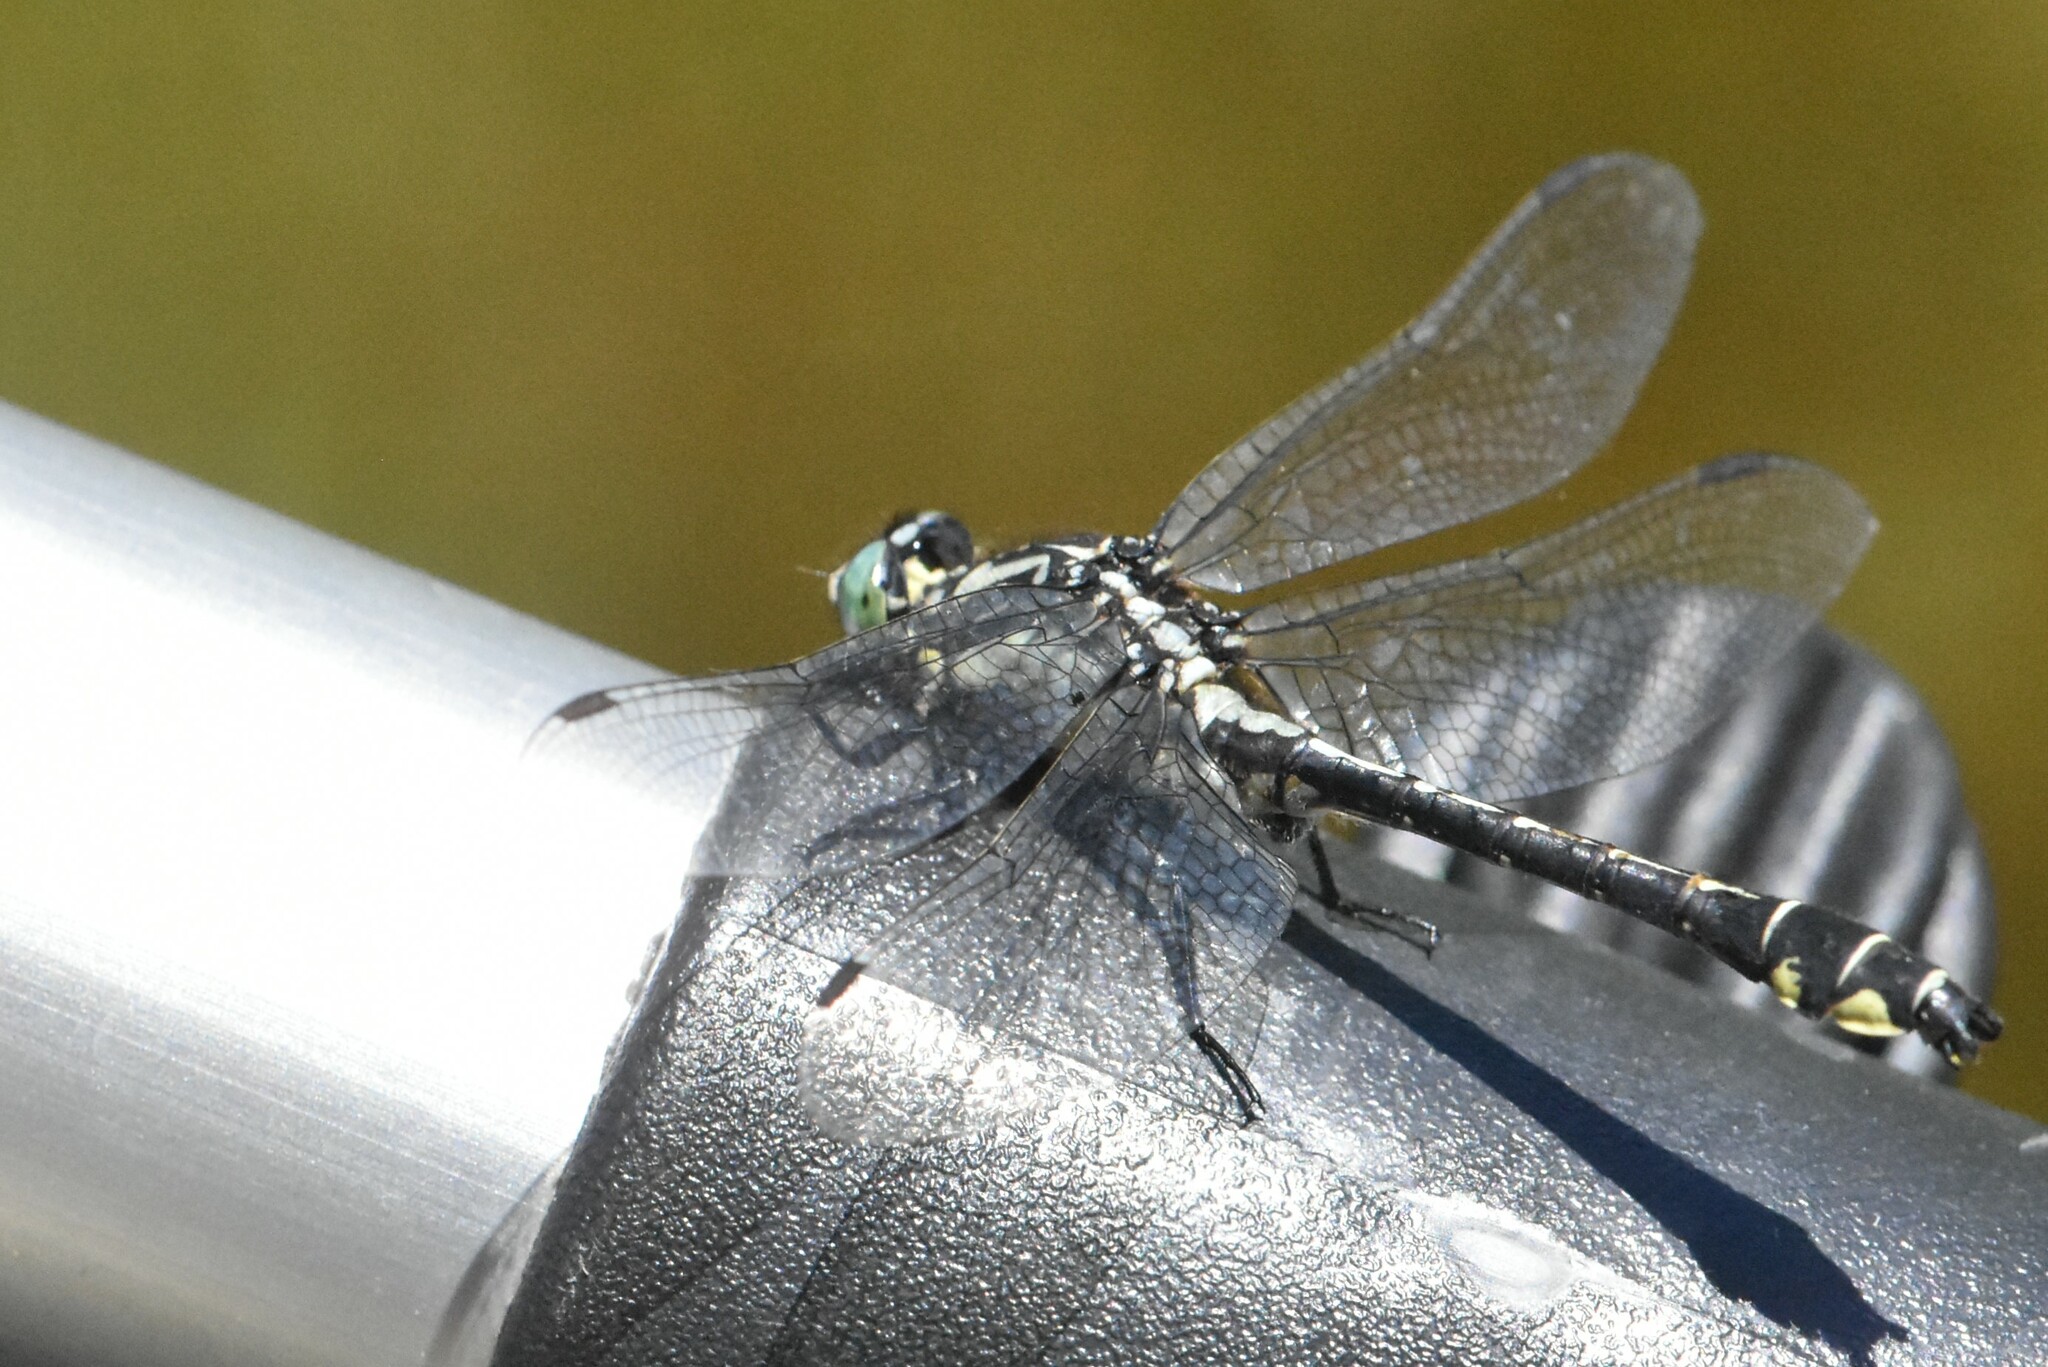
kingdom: Animalia
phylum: Arthropoda
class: Insecta
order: Odonata
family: Gomphidae
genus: Gomphus
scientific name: Gomphus vulgatissimus
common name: Club-tailed dragonfly
